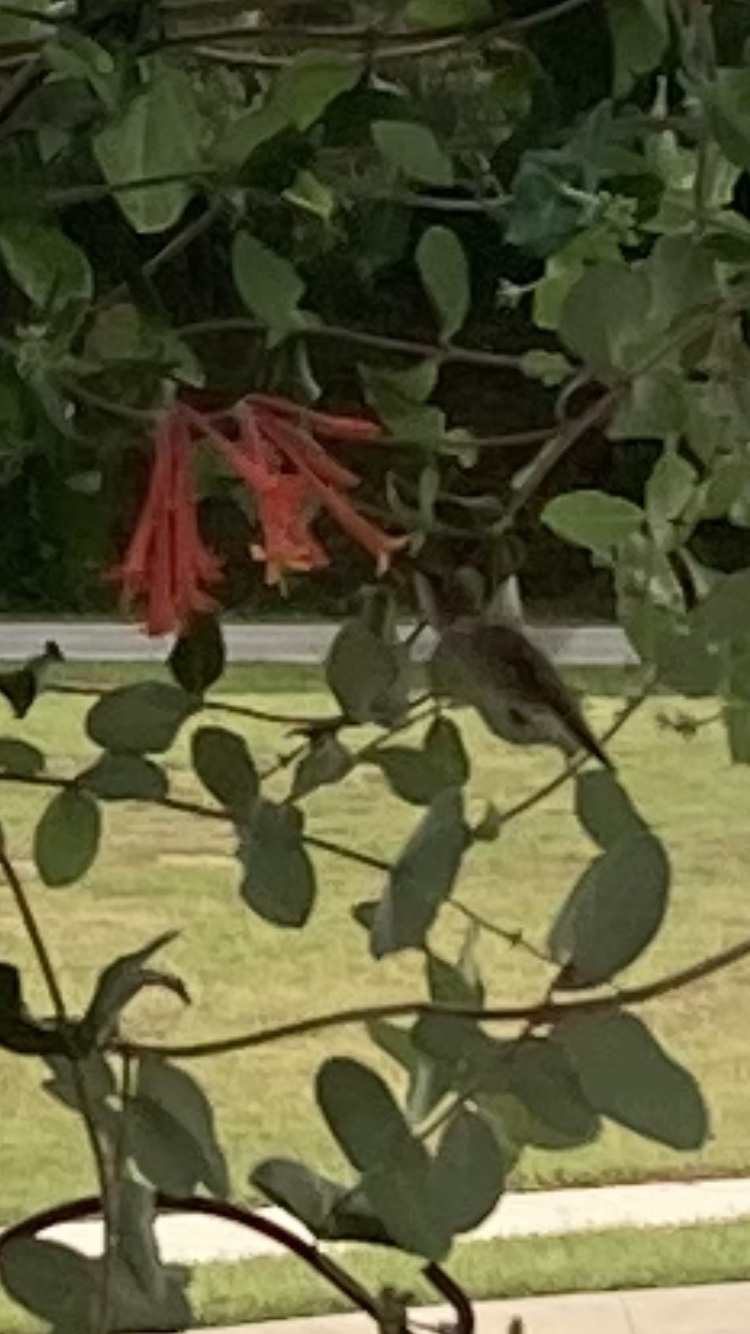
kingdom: Animalia
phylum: Chordata
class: Aves
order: Apodiformes
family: Trochilidae
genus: Archilochus
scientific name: Archilochus colubris
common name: Ruby-throated hummingbird
